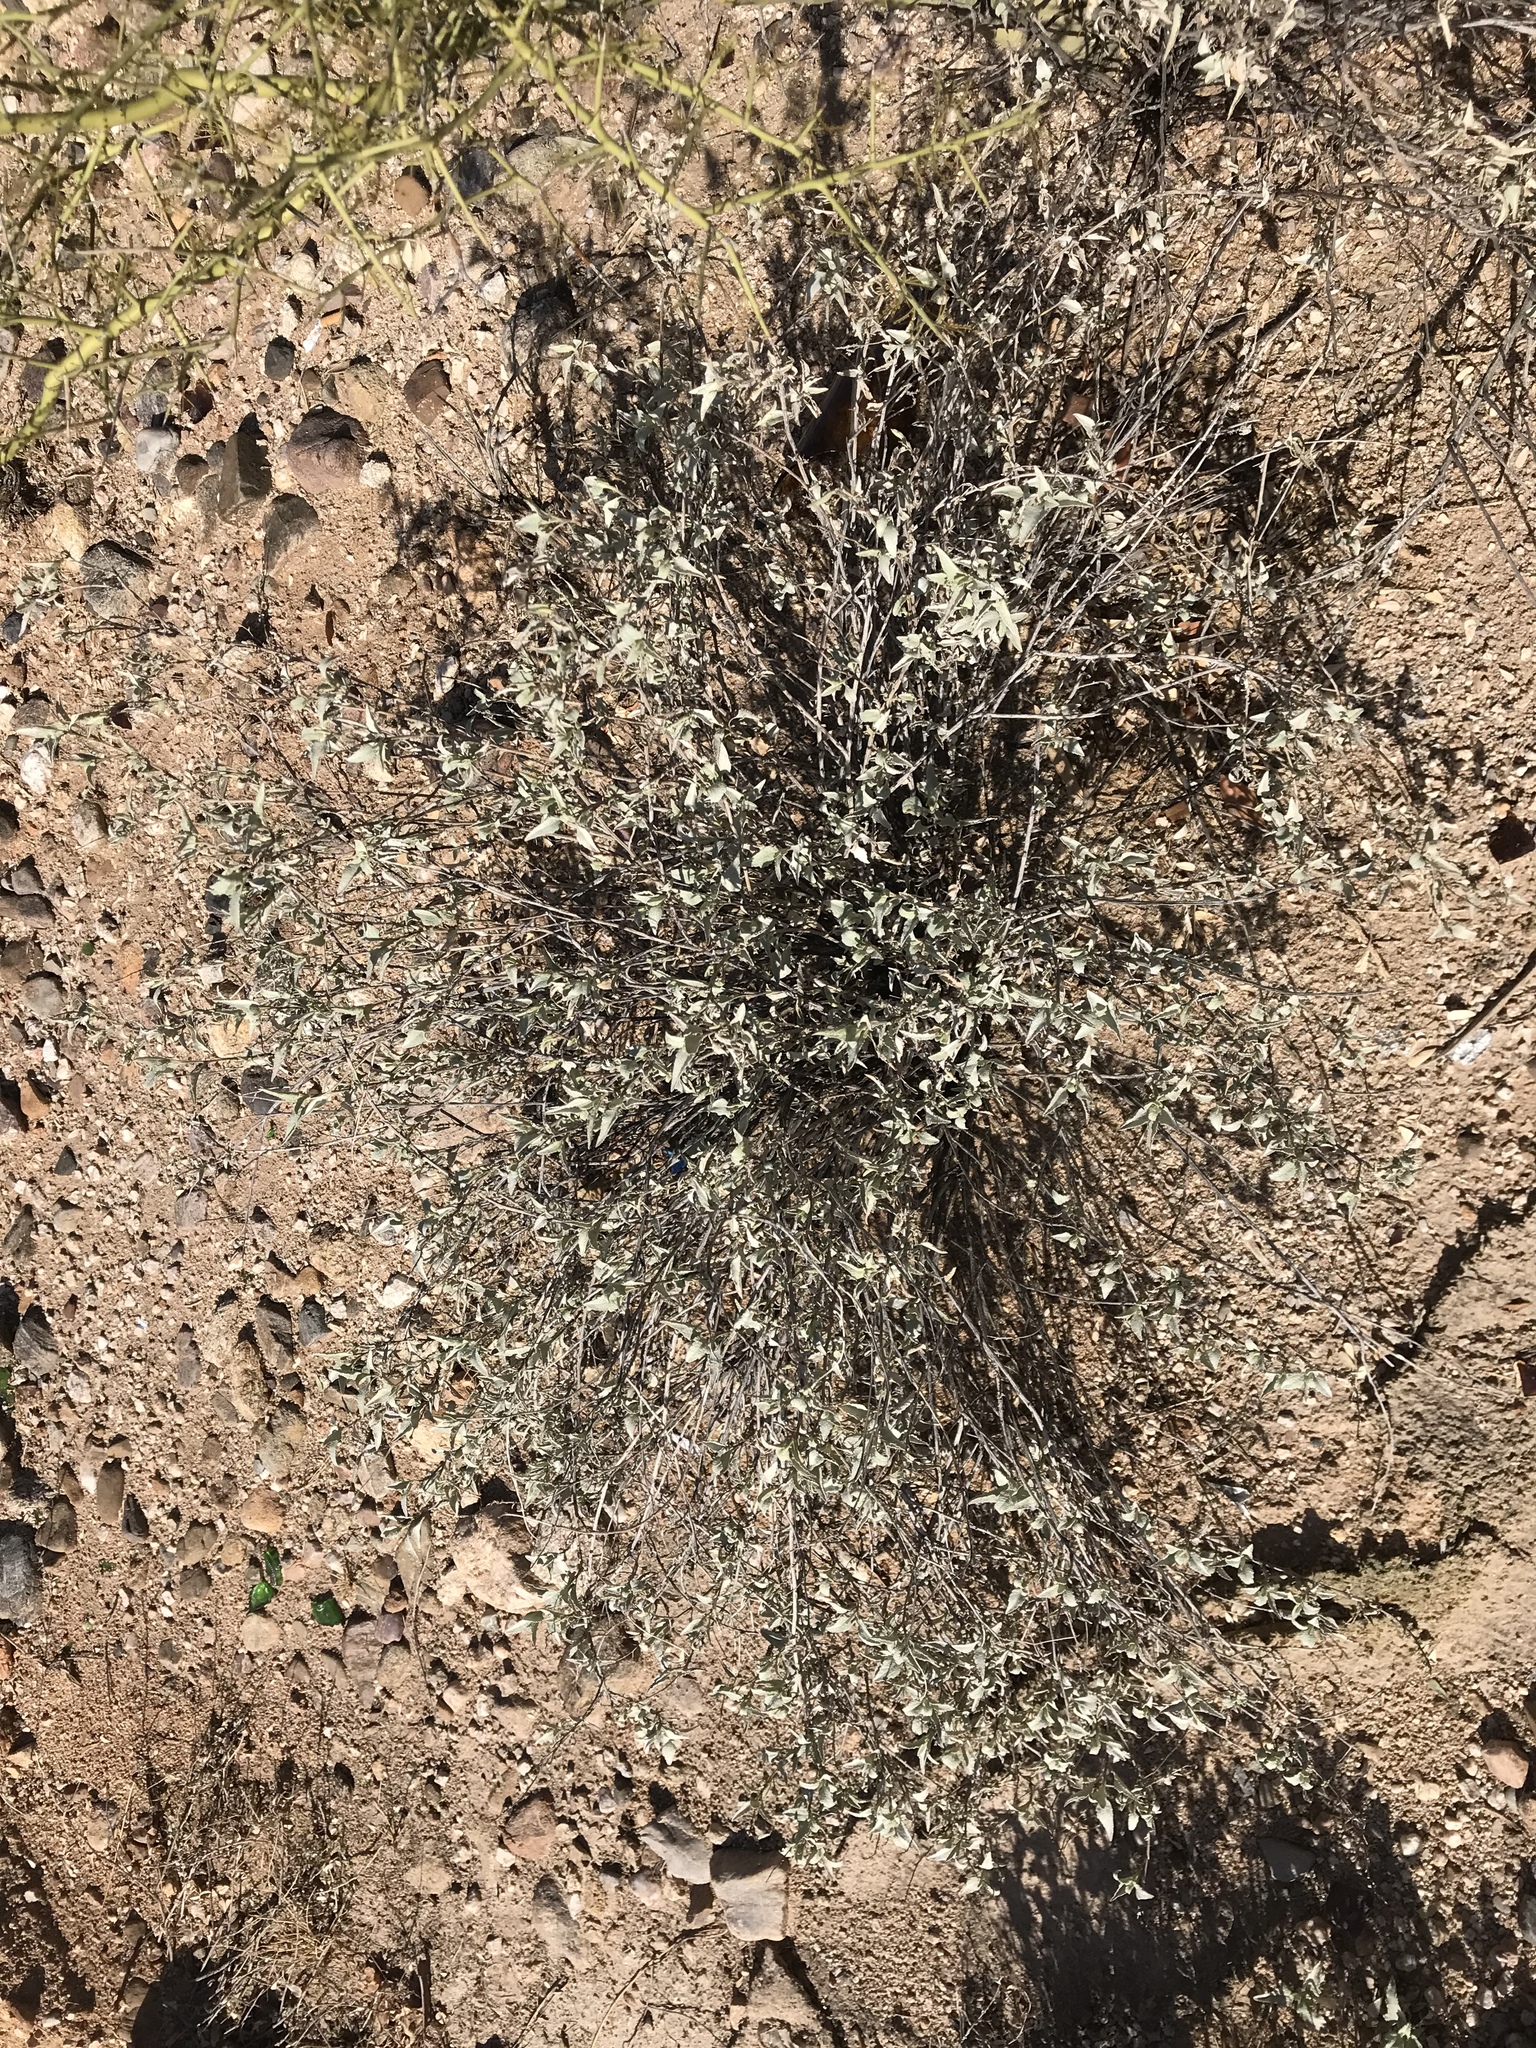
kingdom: Plantae
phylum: Tracheophyta
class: Magnoliopsida
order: Asterales
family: Asteraceae
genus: Ambrosia
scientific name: Ambrosia deltoidea
